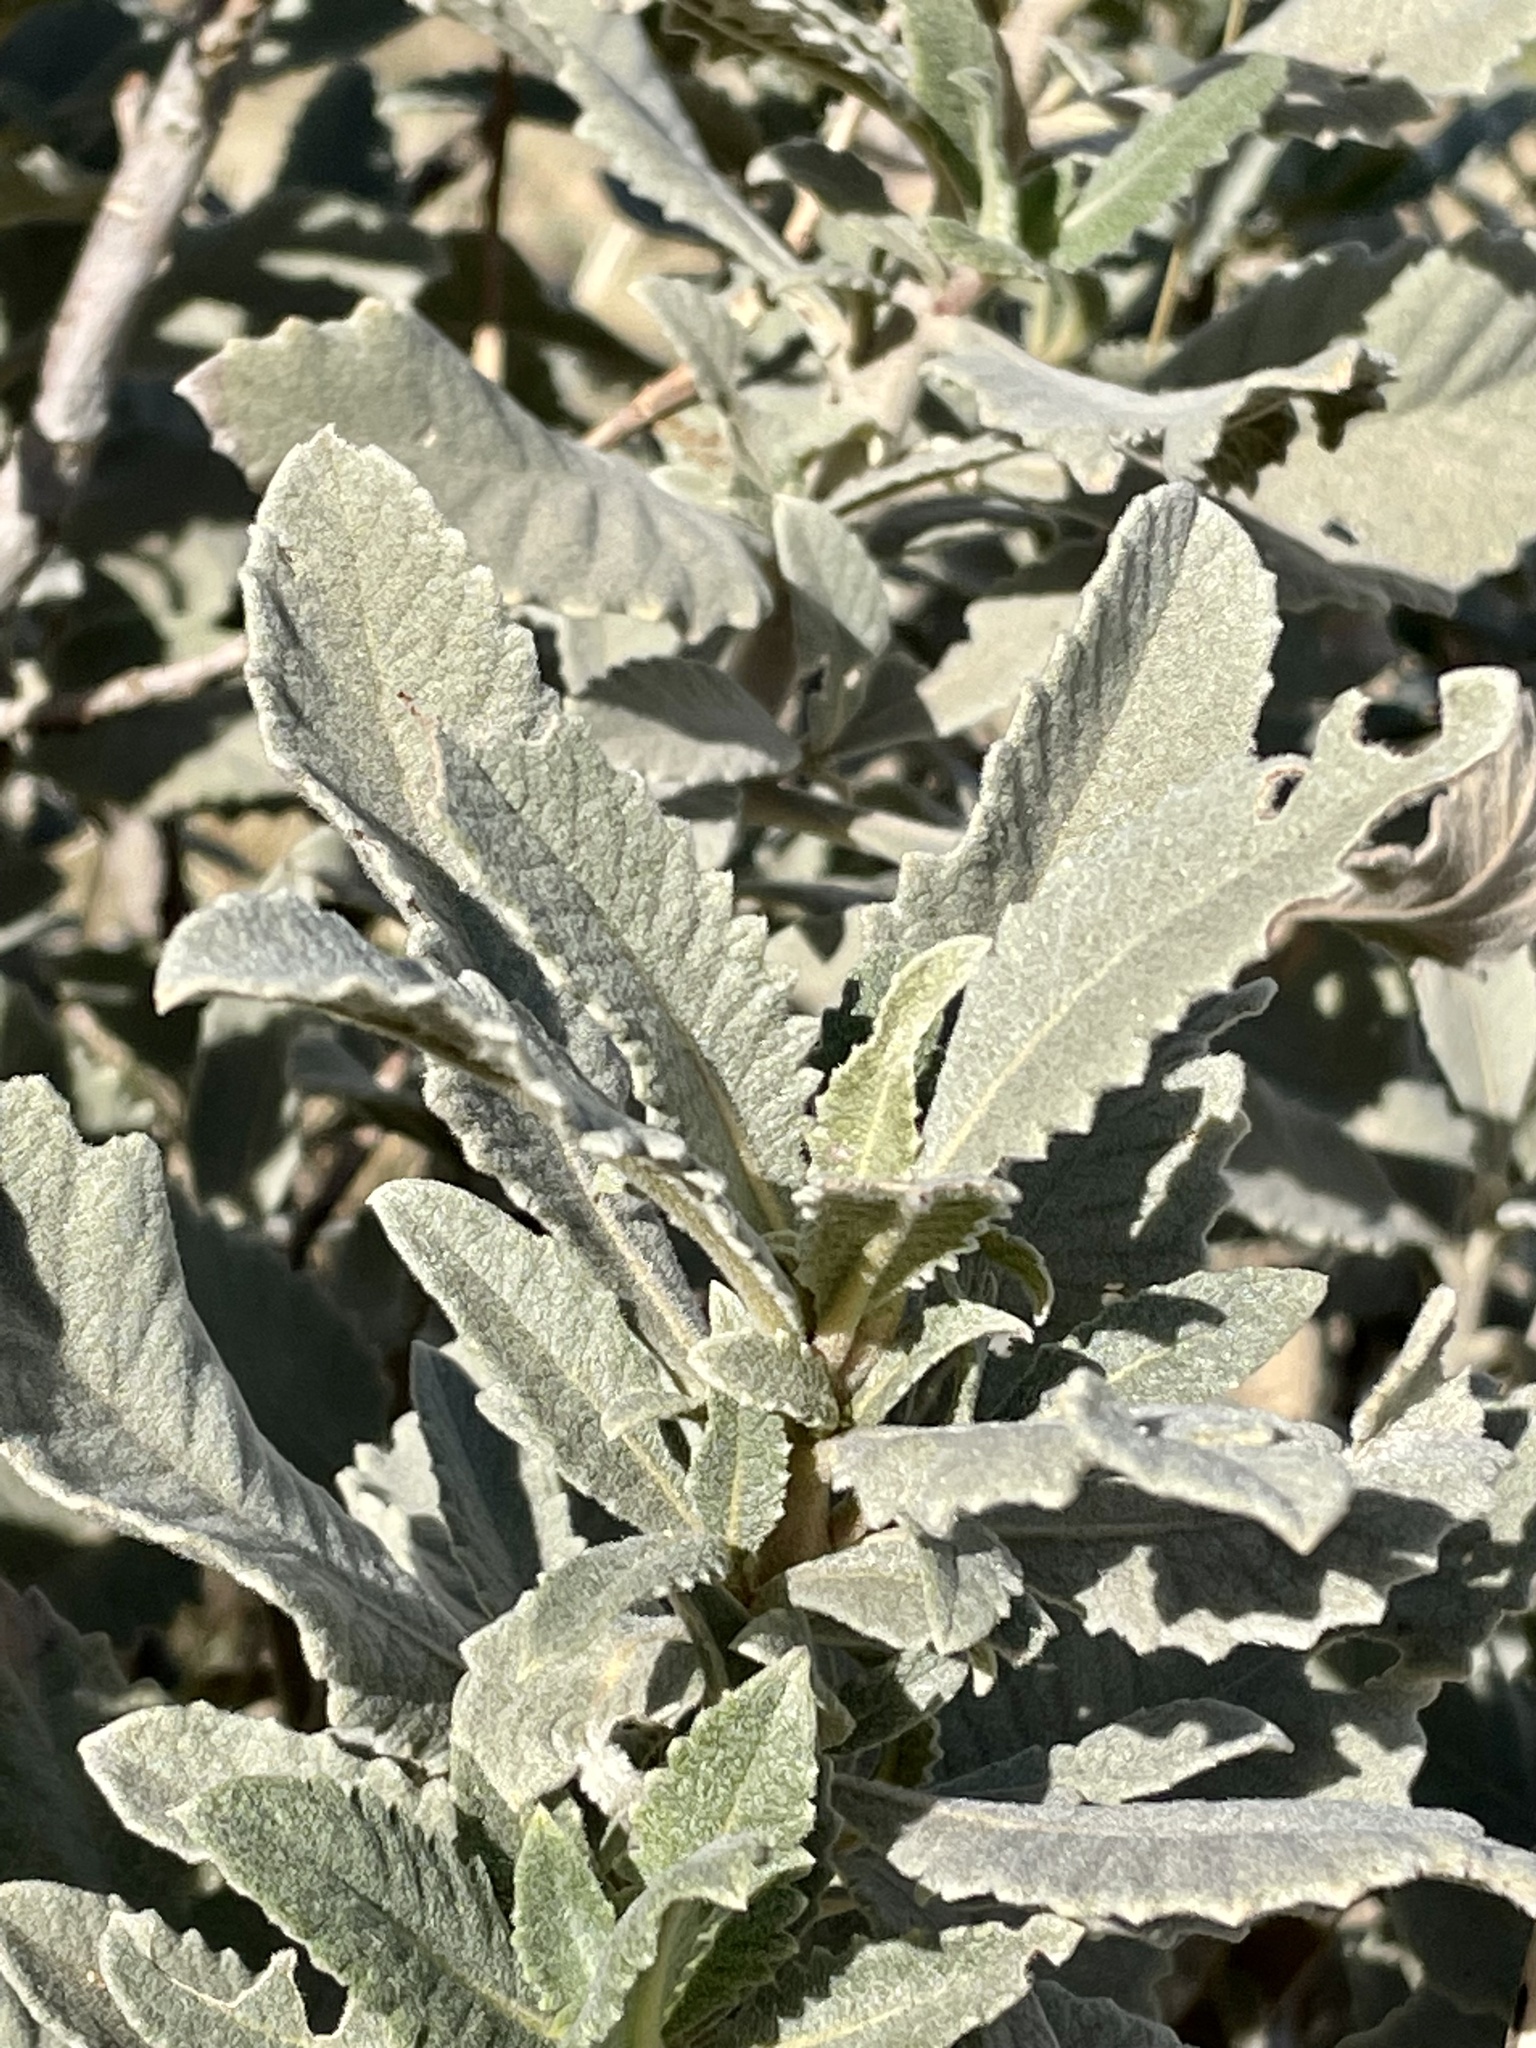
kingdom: Plantae
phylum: Tracheophyta
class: Magnoliopsida
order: Boraginales
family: Namaceae
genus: Eriodictyon
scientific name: Eriodictyon crassifolium
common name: Thick-leaf yerba-santa
